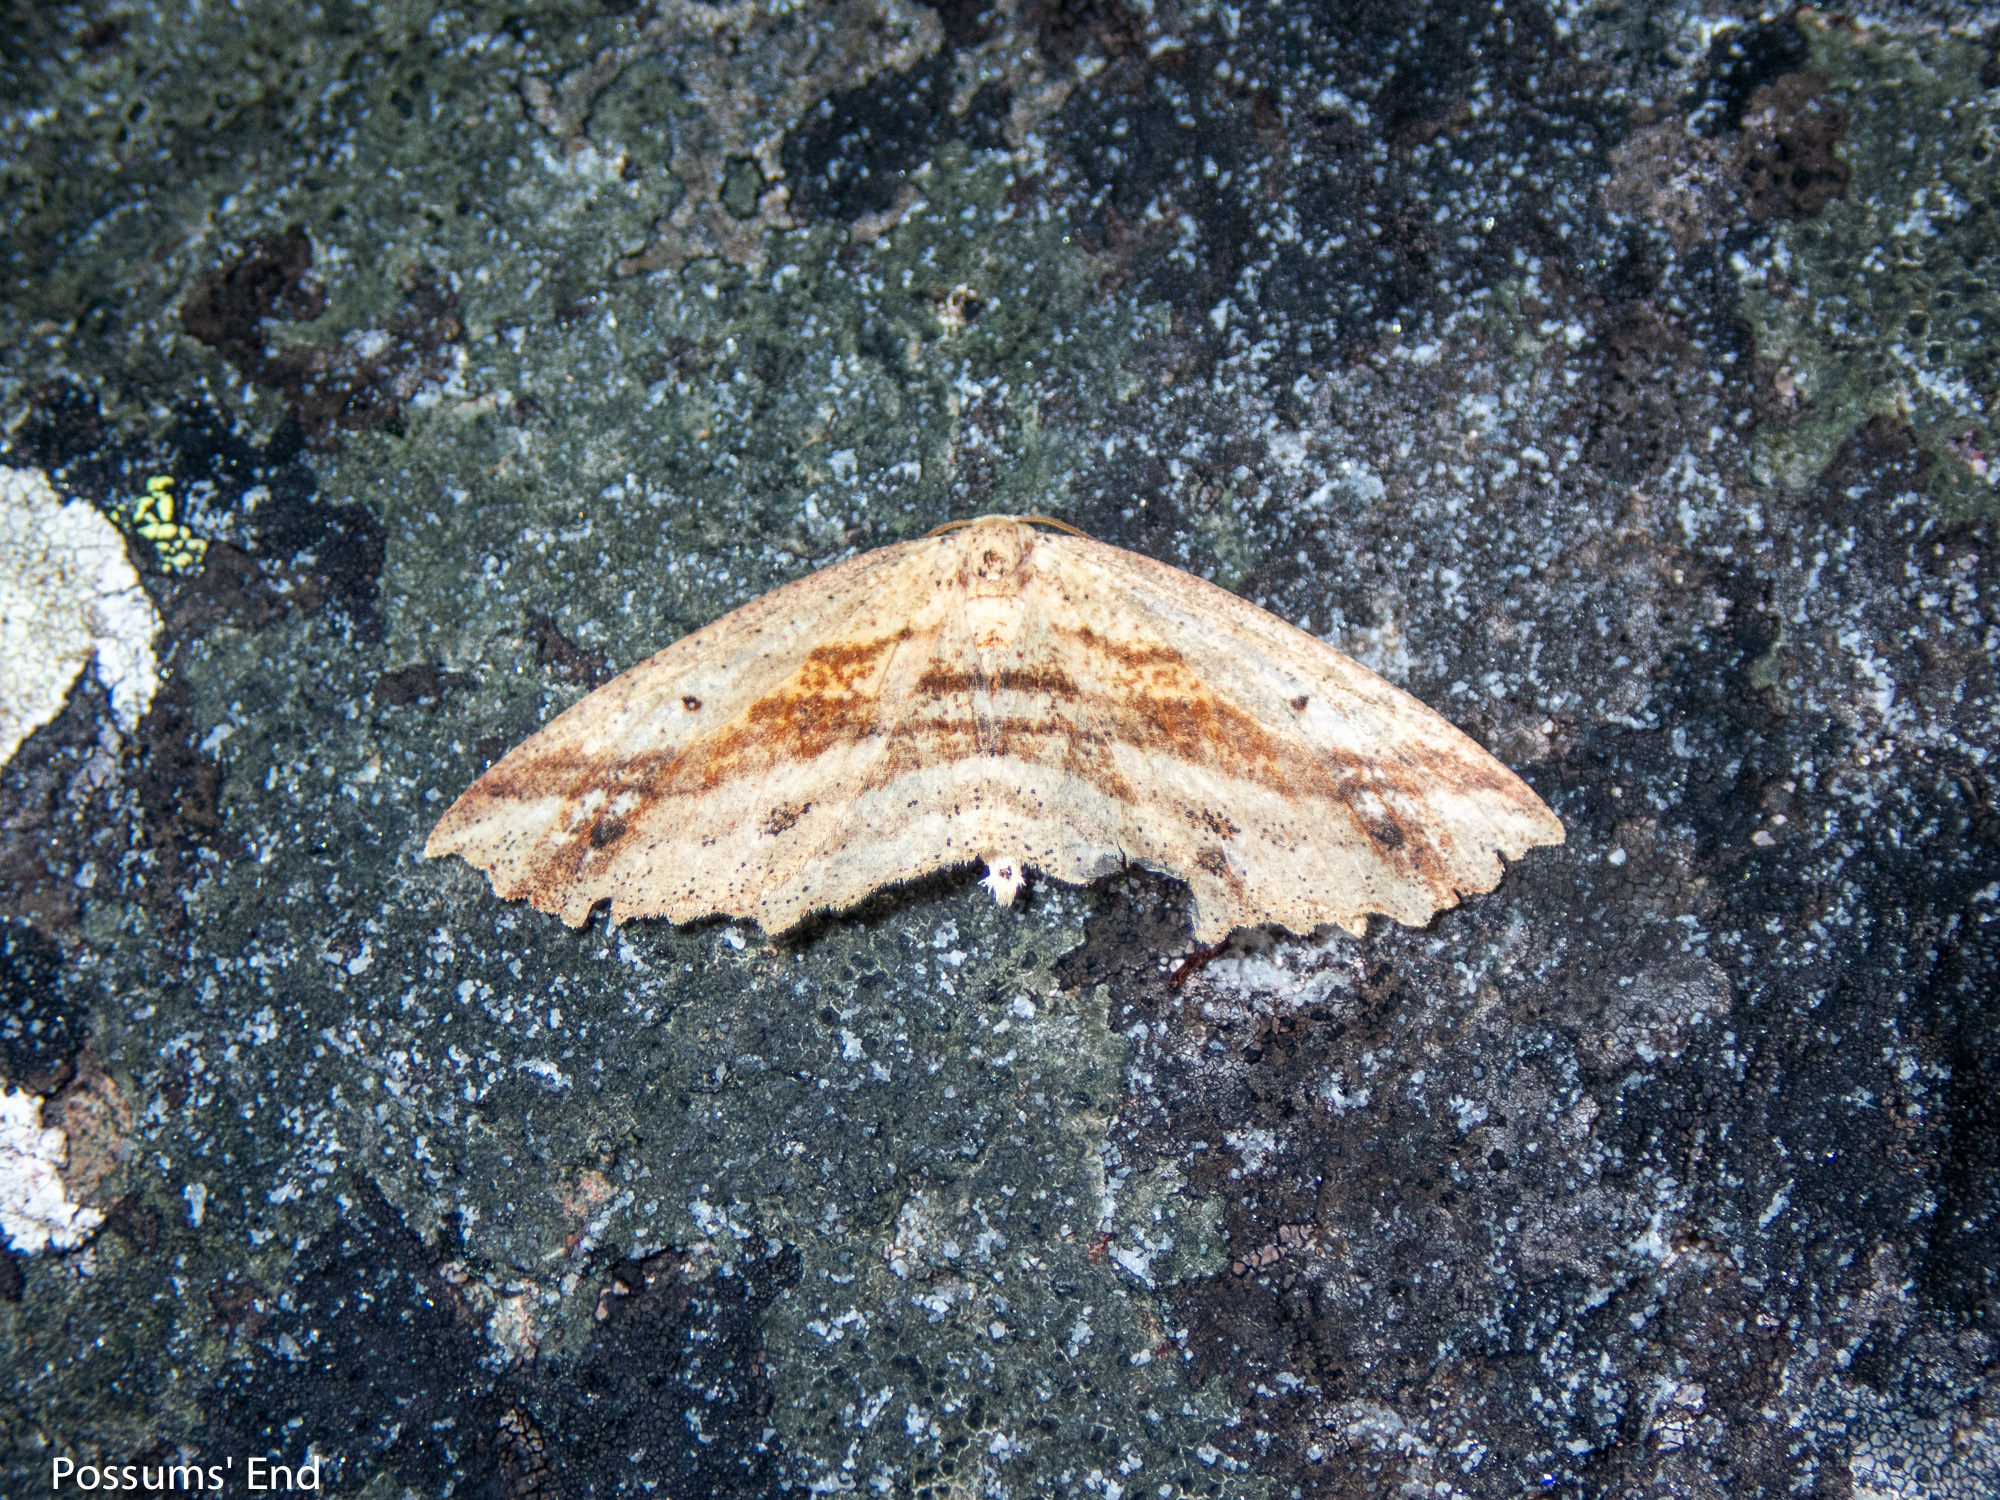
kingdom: Animalia
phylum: Arthropoda
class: Insecta
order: Lepidoptera
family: Geometridae
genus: Xyridacma
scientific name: Xyridacma veronicae
